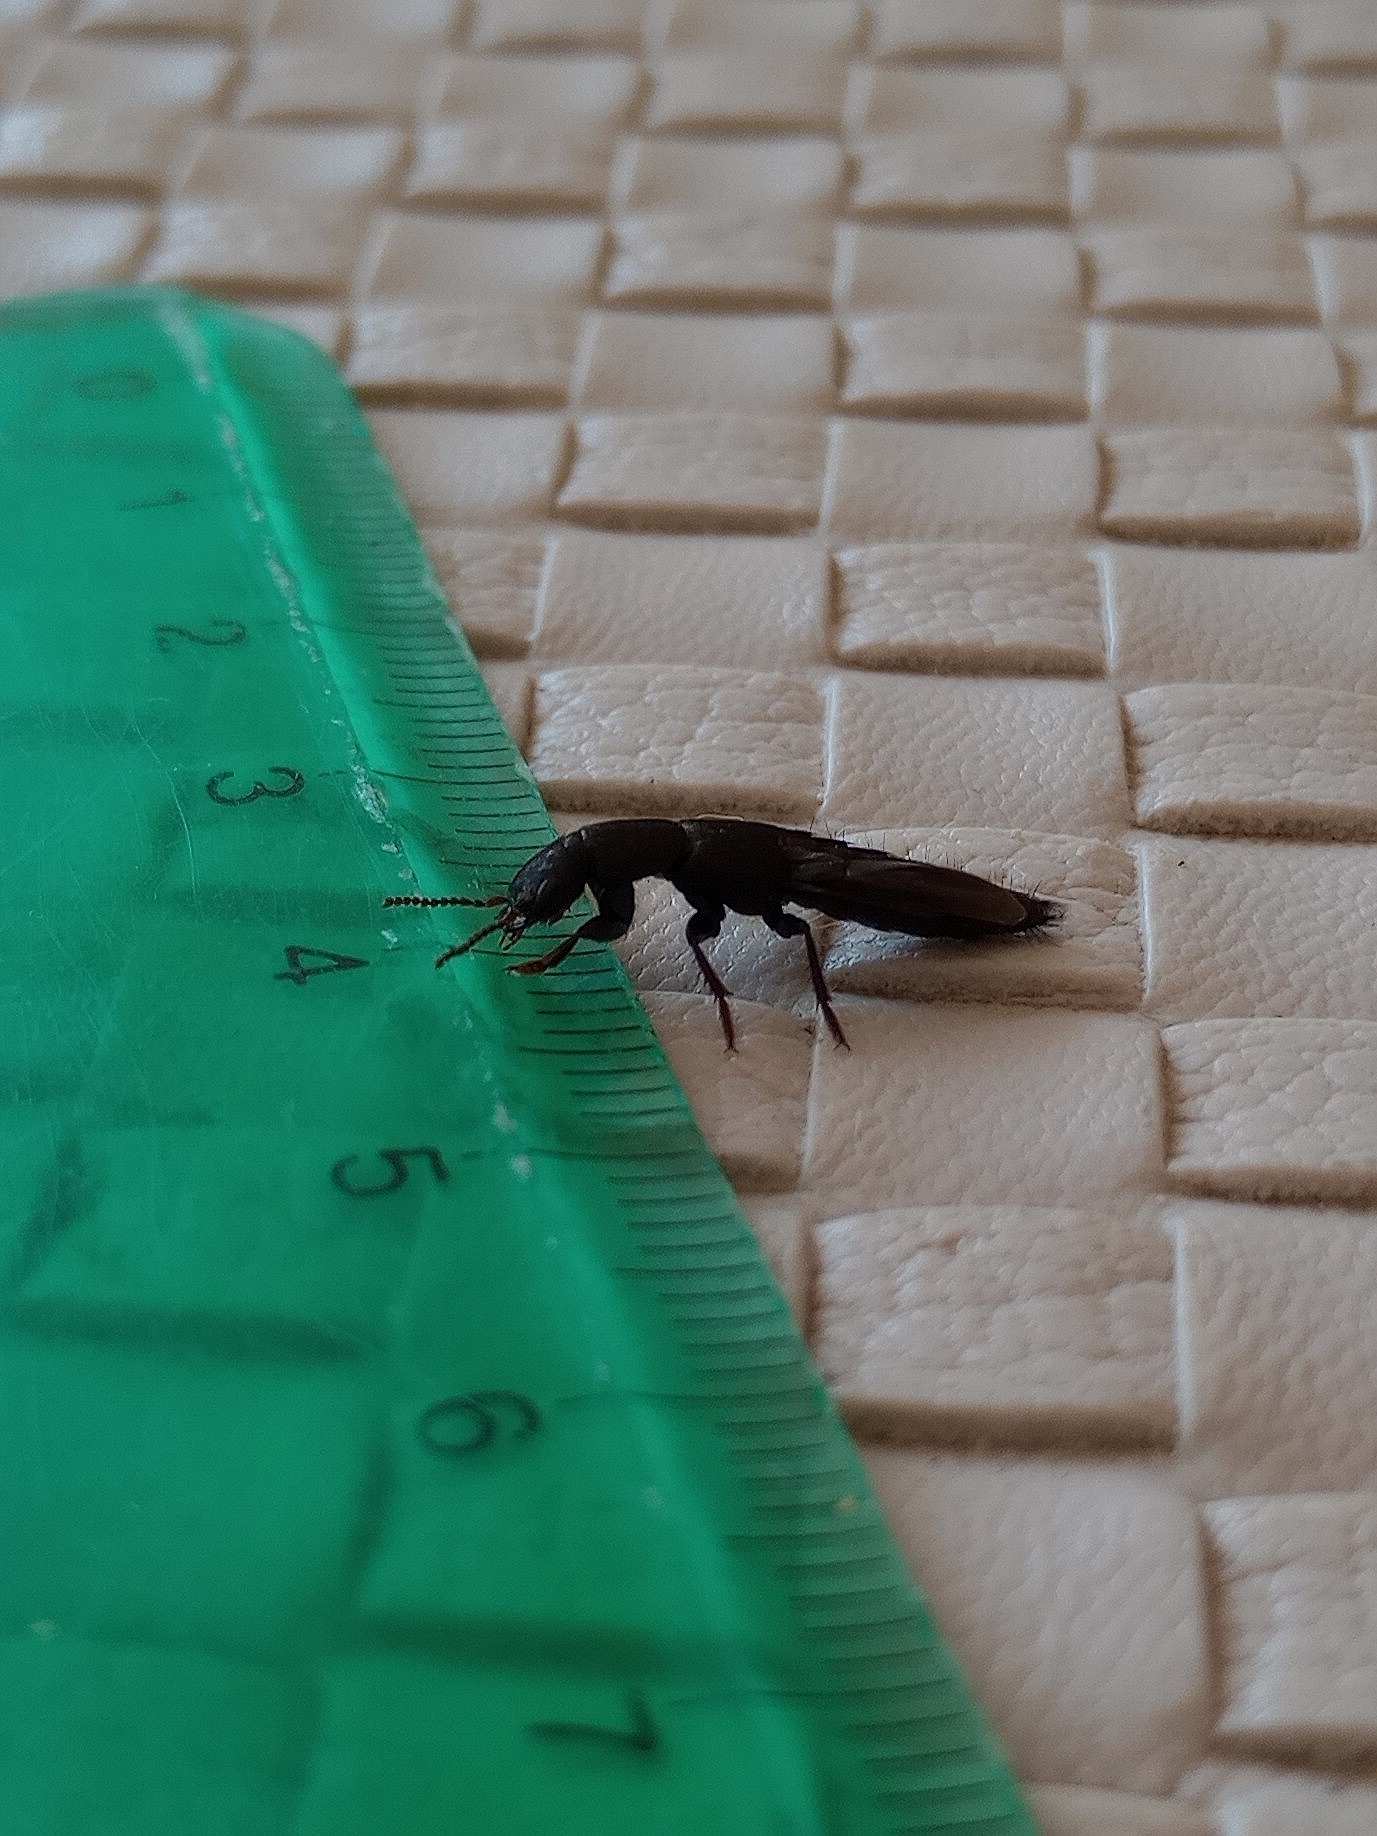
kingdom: Animalia
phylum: Arthropoda
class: Insecta
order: Coleoptera
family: Staphylinidae
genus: Platydracus
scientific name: Platydracus scabrosus
